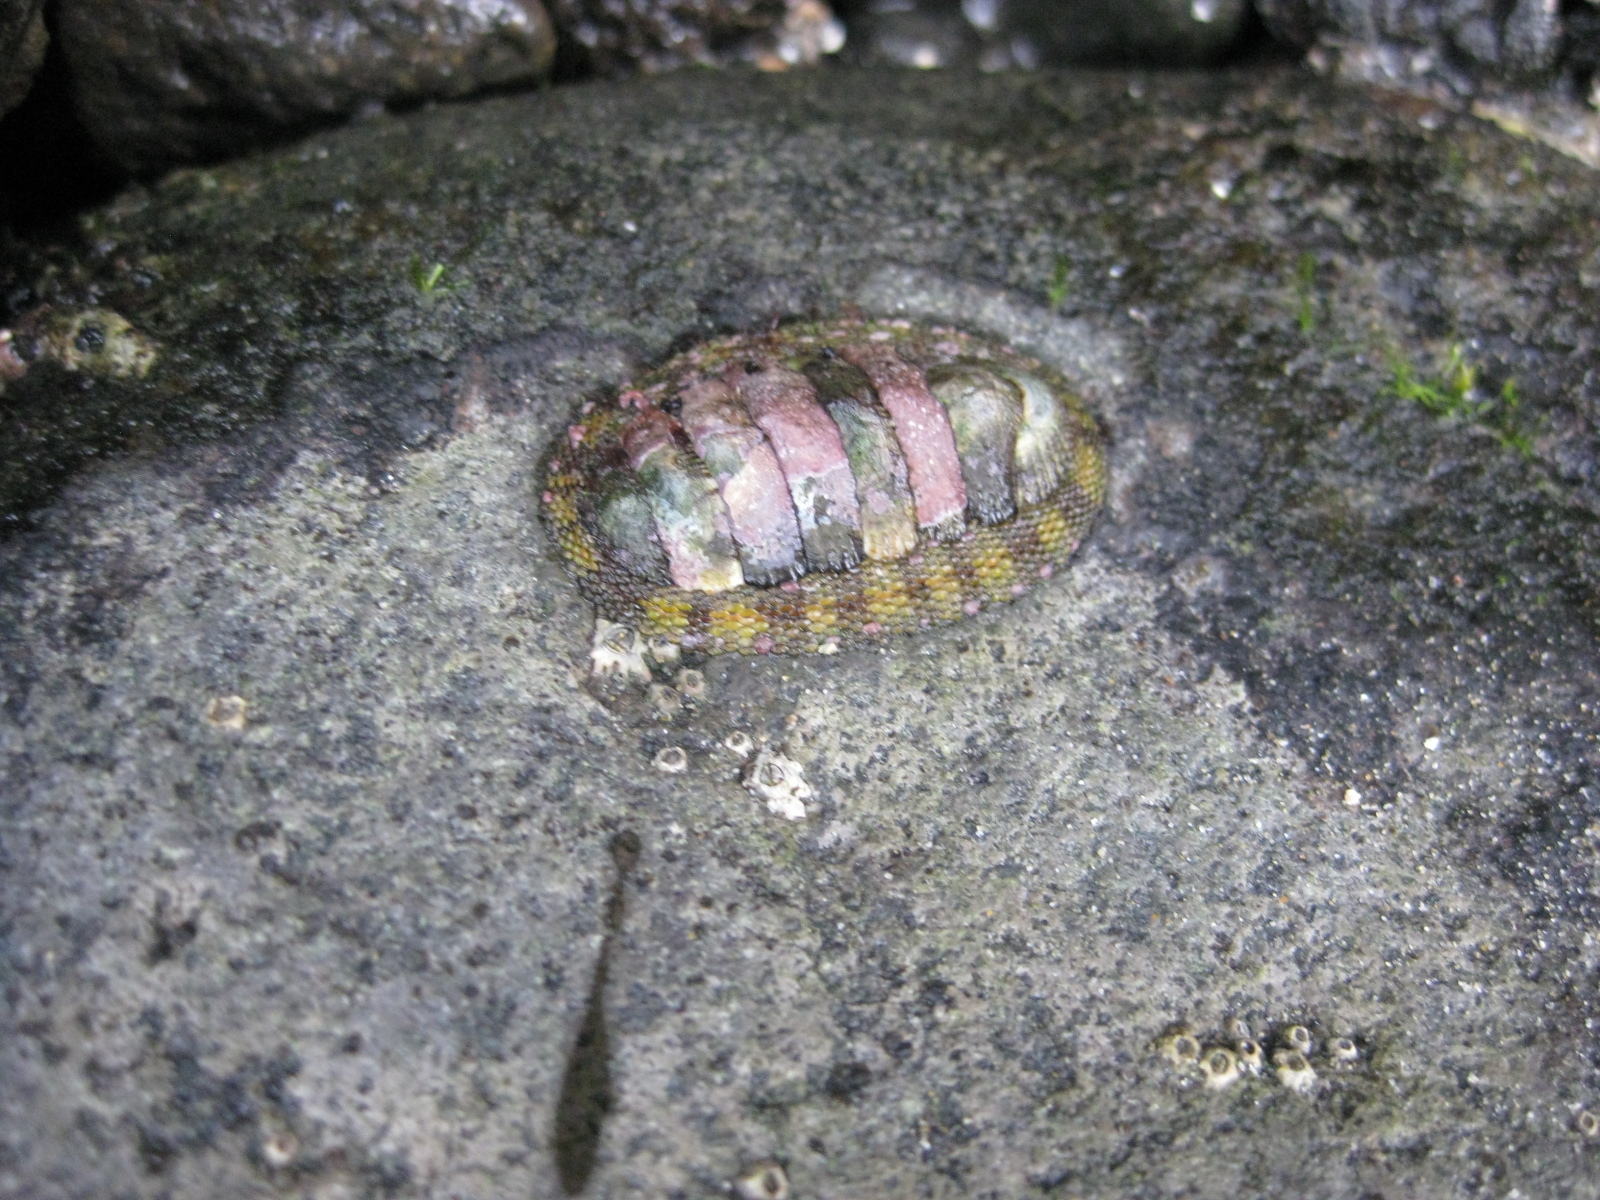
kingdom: Animalia
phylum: Mollusca
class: Polyplacophora
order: Chitonida
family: Chitonidae
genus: Sypharochiton
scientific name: Sypharochiton pelliserpentis
